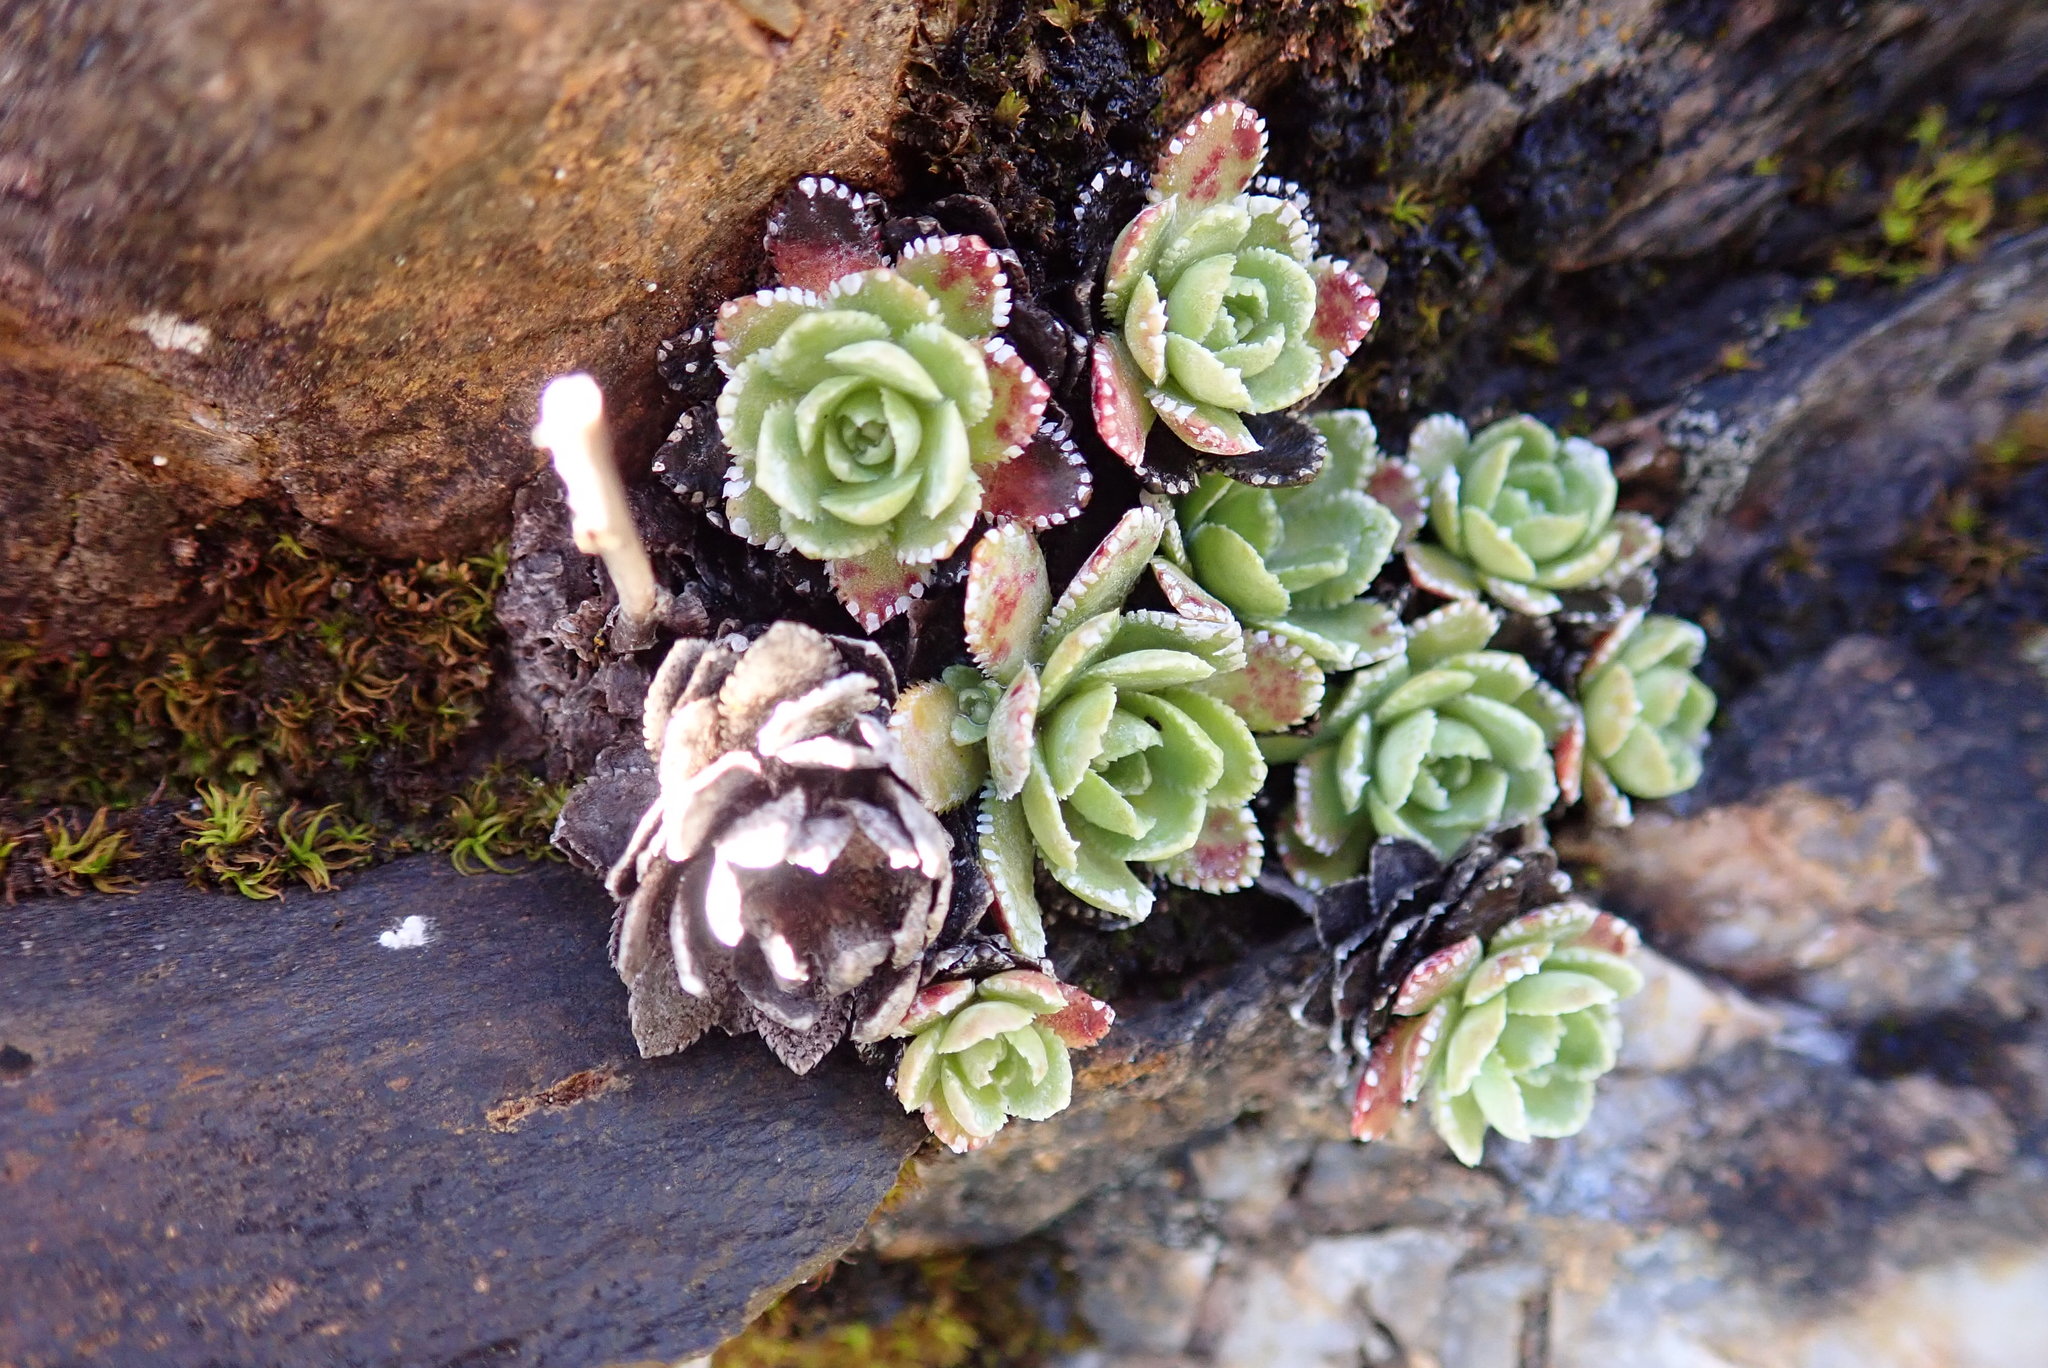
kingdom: Plantae
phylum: Tracheophyta
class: Magnoliopsida
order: Saxifragales
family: Saxifragaceae
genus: Saxifraga
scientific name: Saxifraga paniculata
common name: Livelong saxifrage
